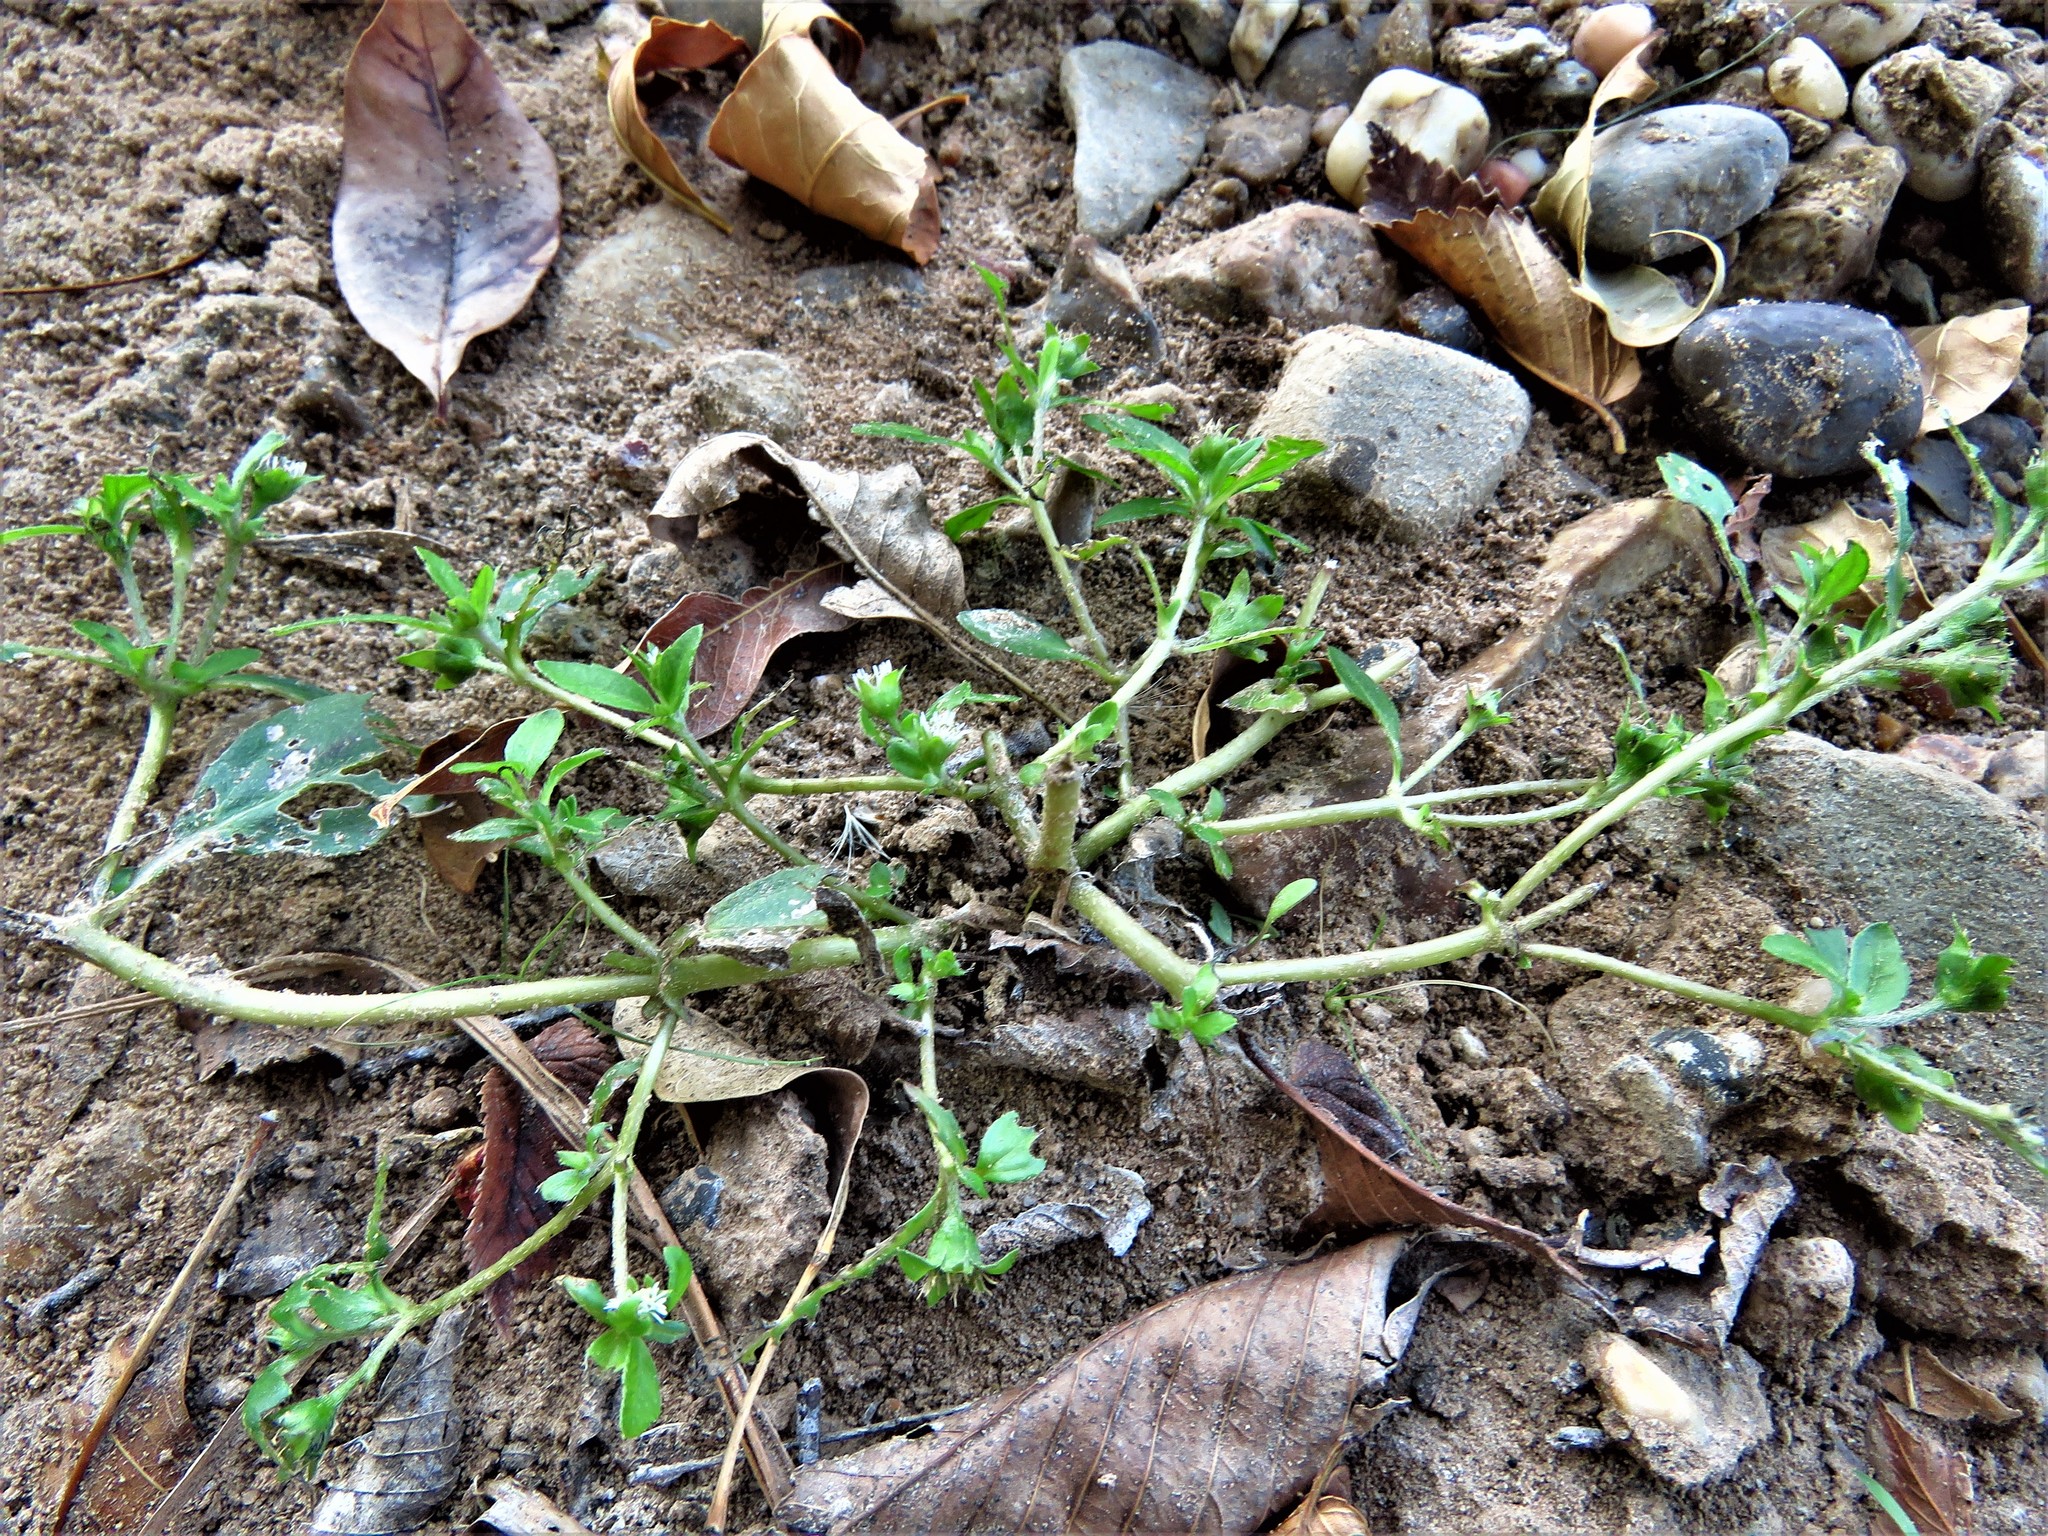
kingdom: Plantae
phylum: Tracheophyta
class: Magnoliopsida
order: Asterales
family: Asteraceae
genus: Eclipta
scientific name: Eclipta prostrata
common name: False daisy
